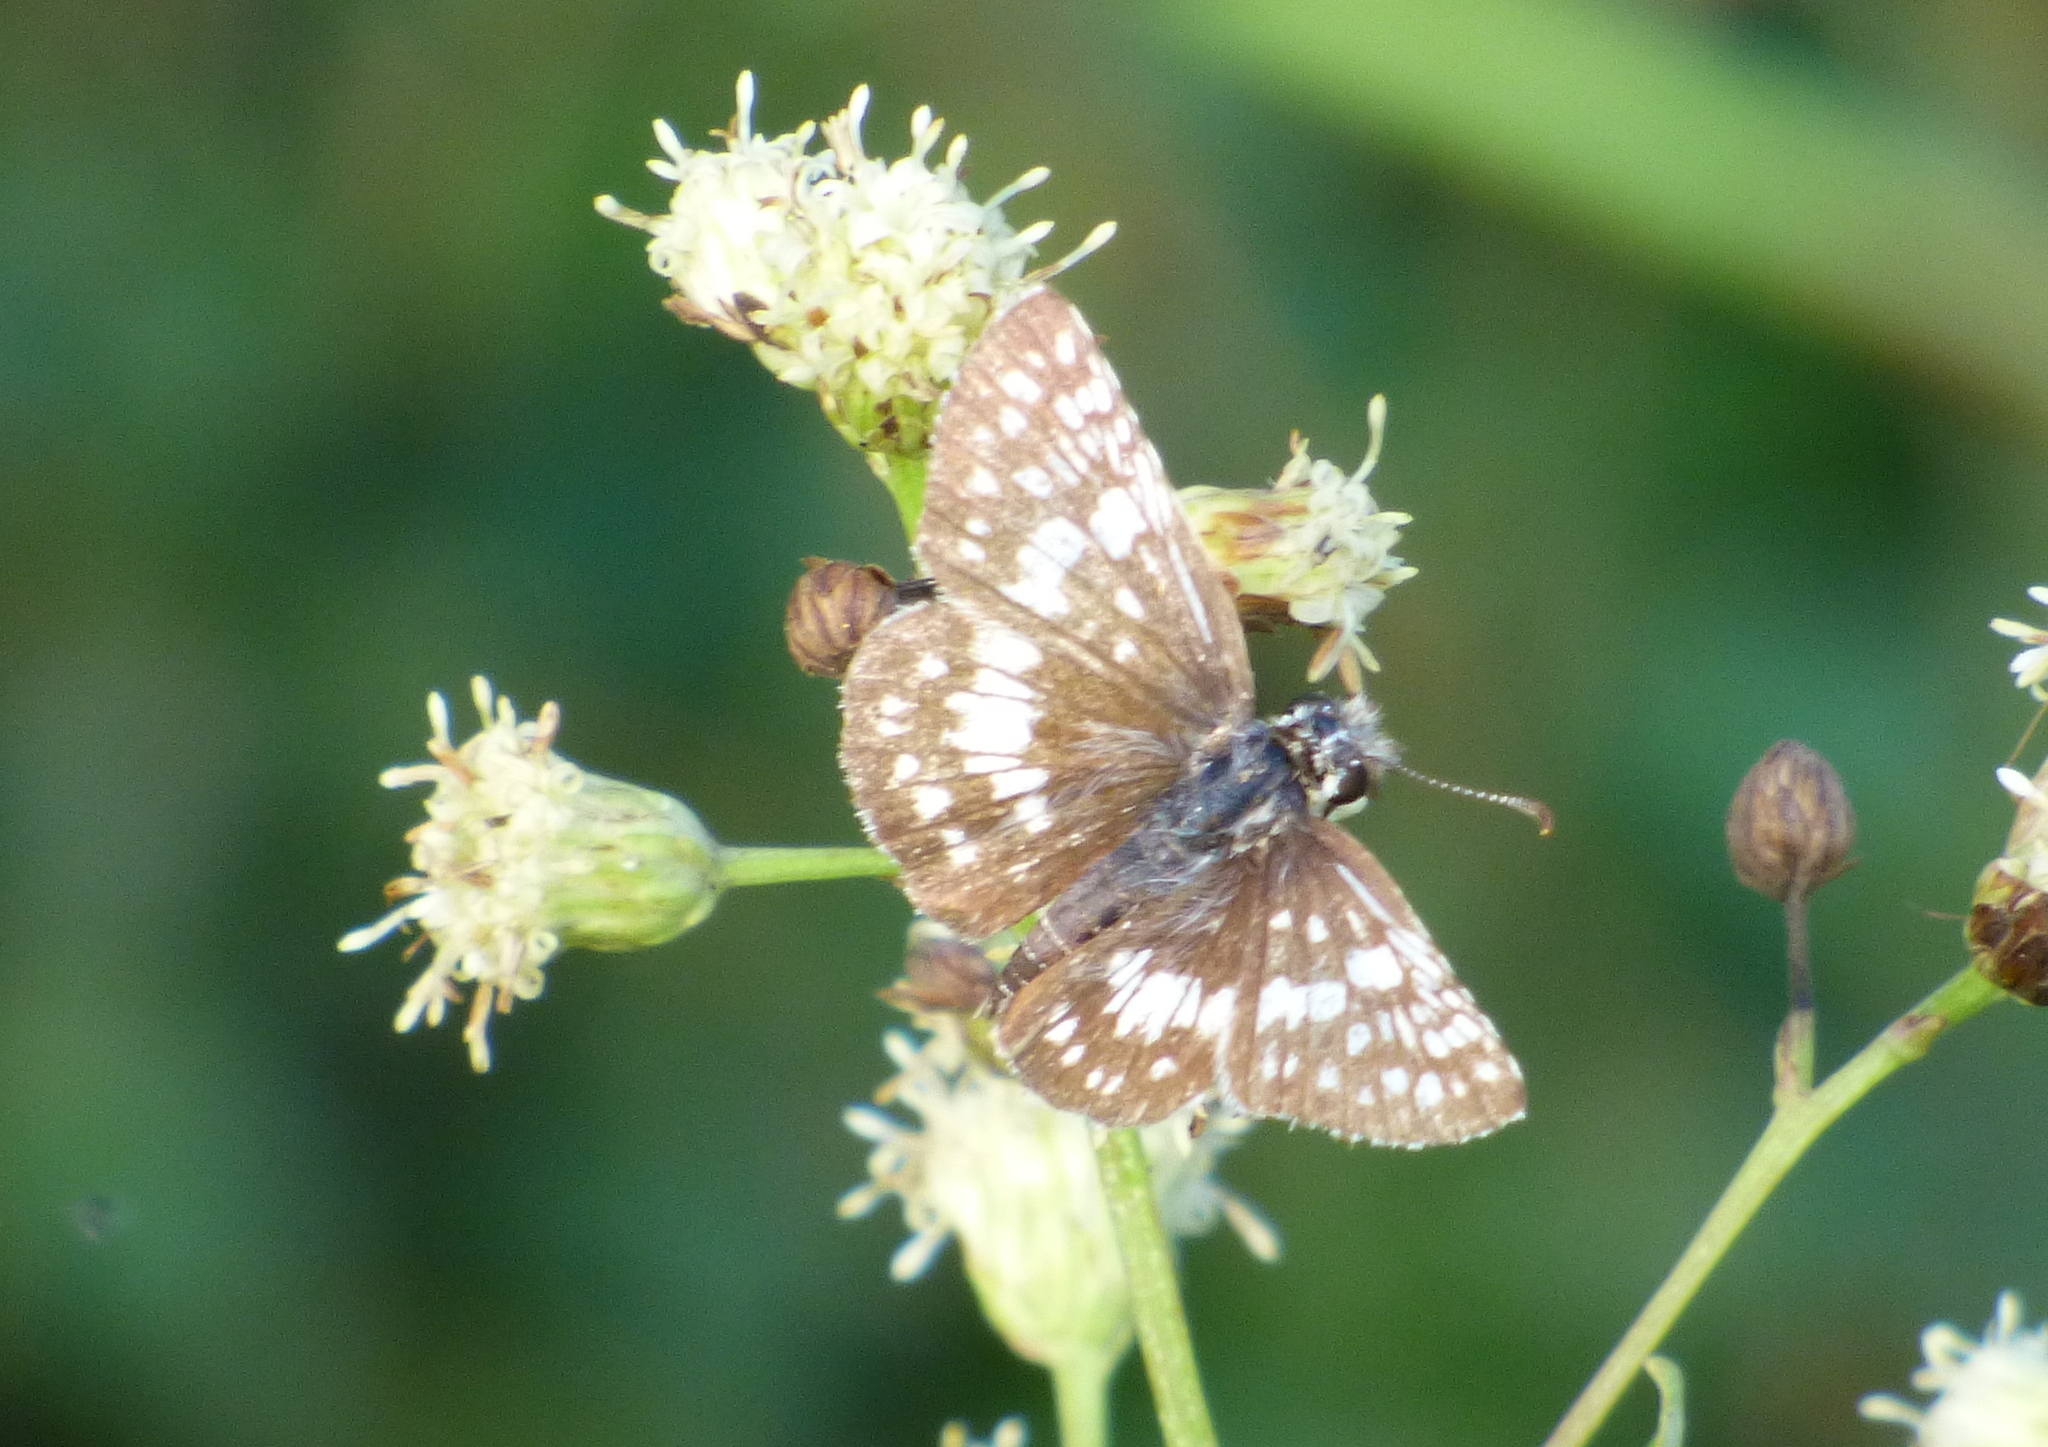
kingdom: Animalia
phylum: Arthropoda
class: Insecta
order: Lepidoptera
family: Hesperiidae
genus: Burnsius
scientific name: Burnsius orcynoides
